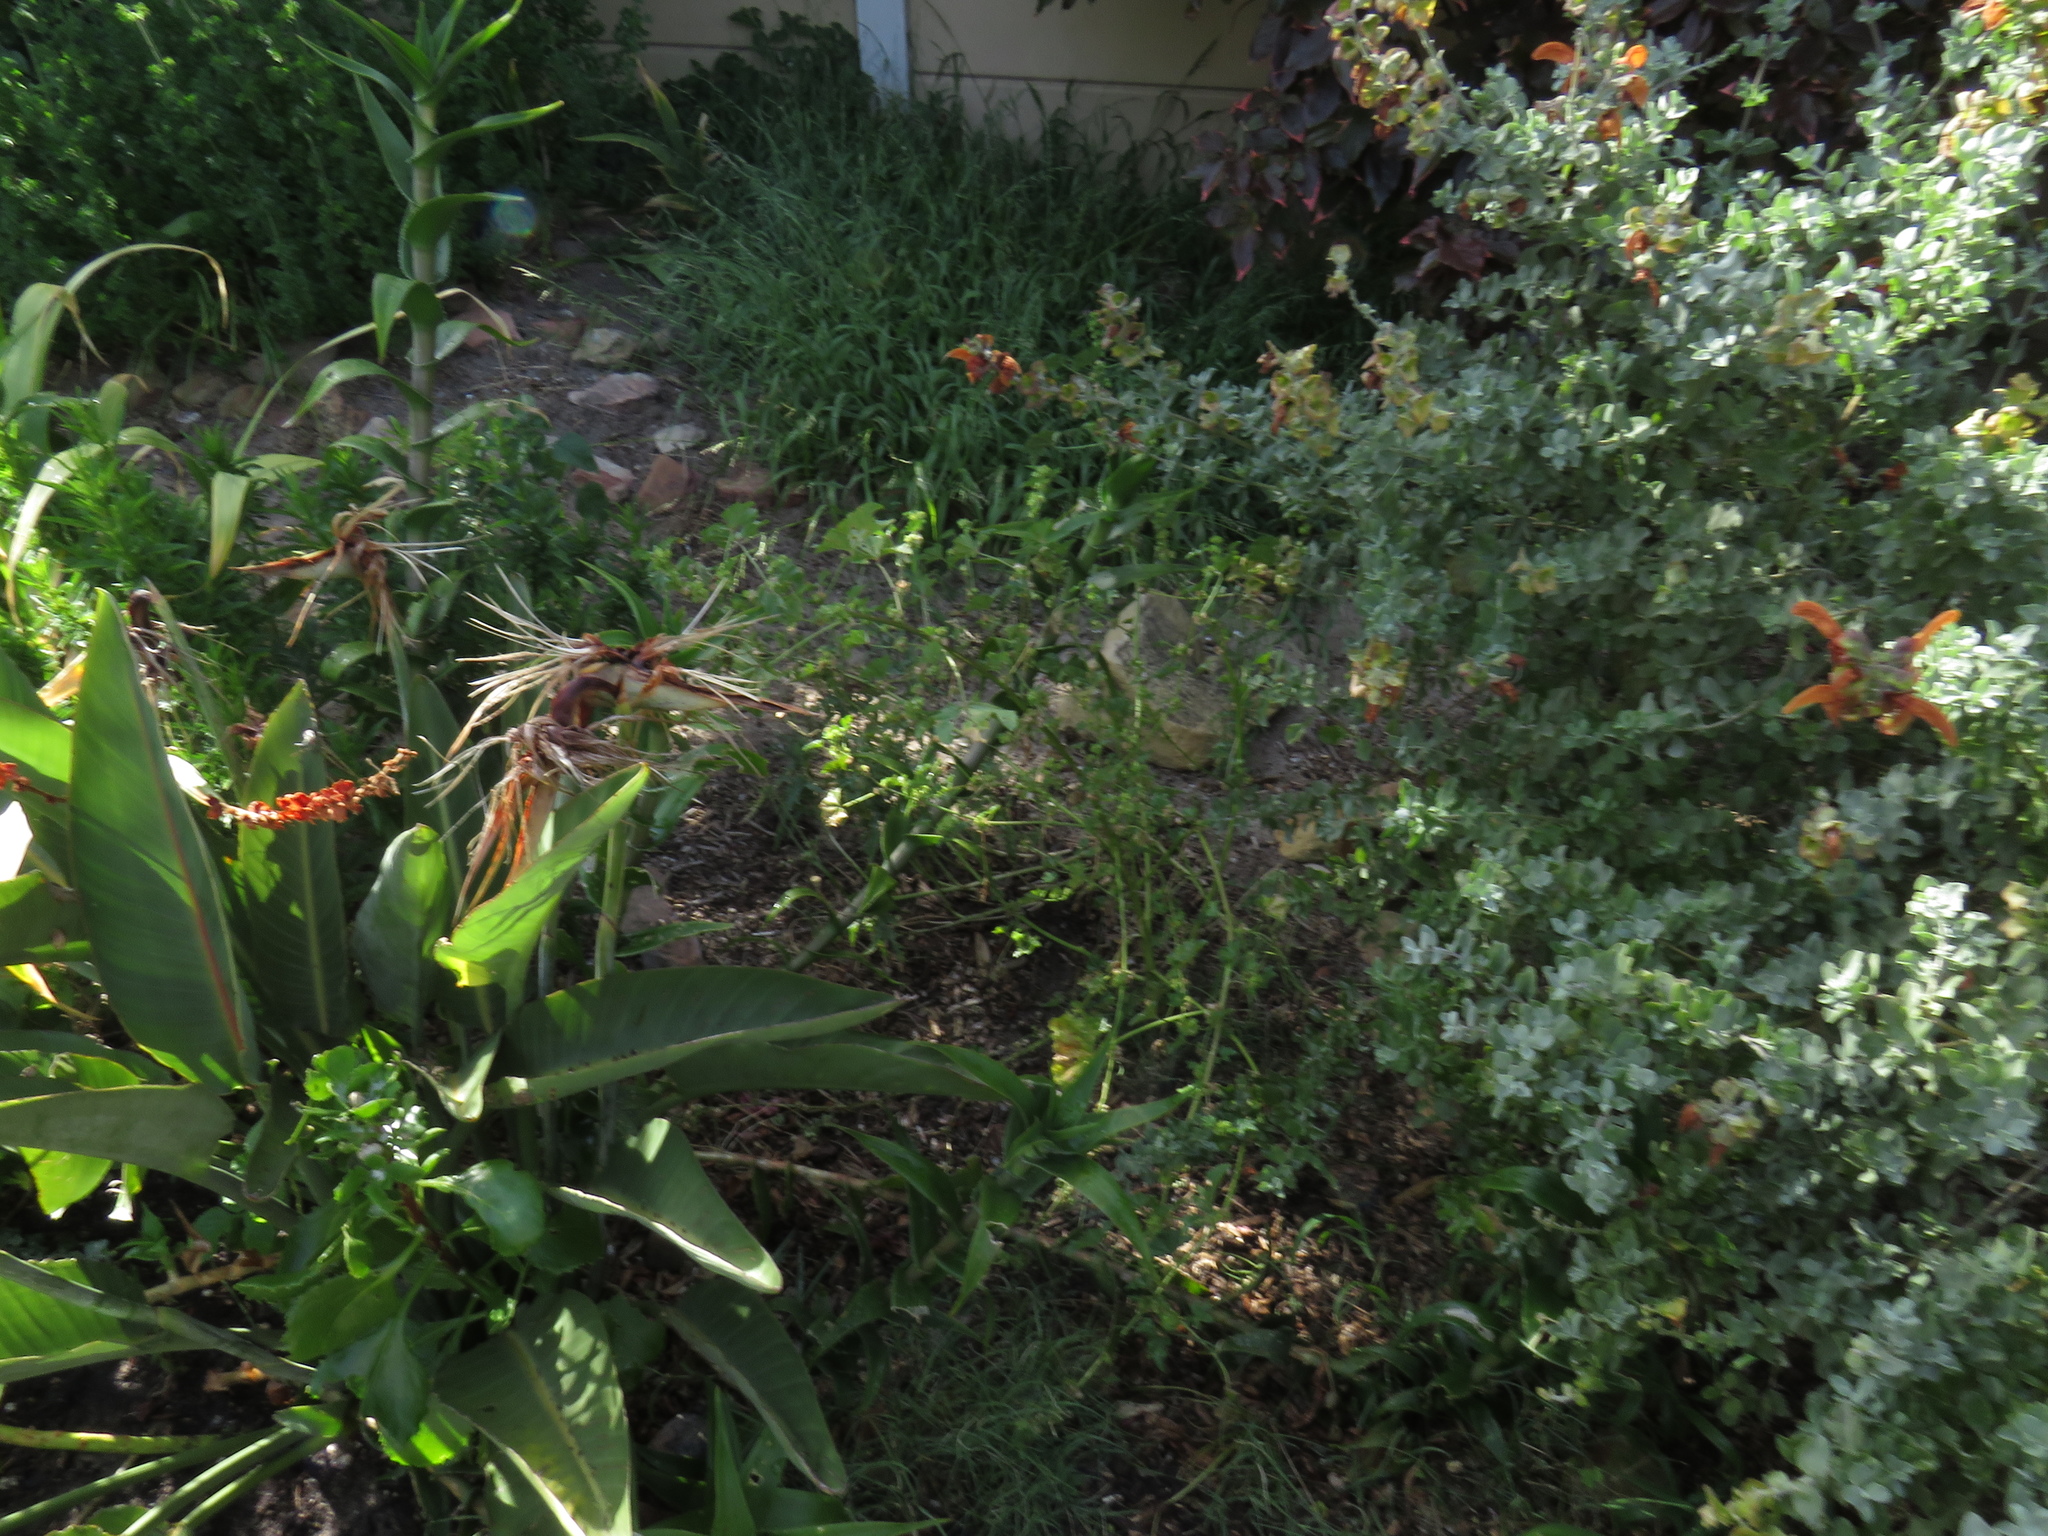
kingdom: Plantae
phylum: Tracheophyta
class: Magnoliopsida
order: Malvales
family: Malvaceae
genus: Malva
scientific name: Malva parviflora
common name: Least mallow
